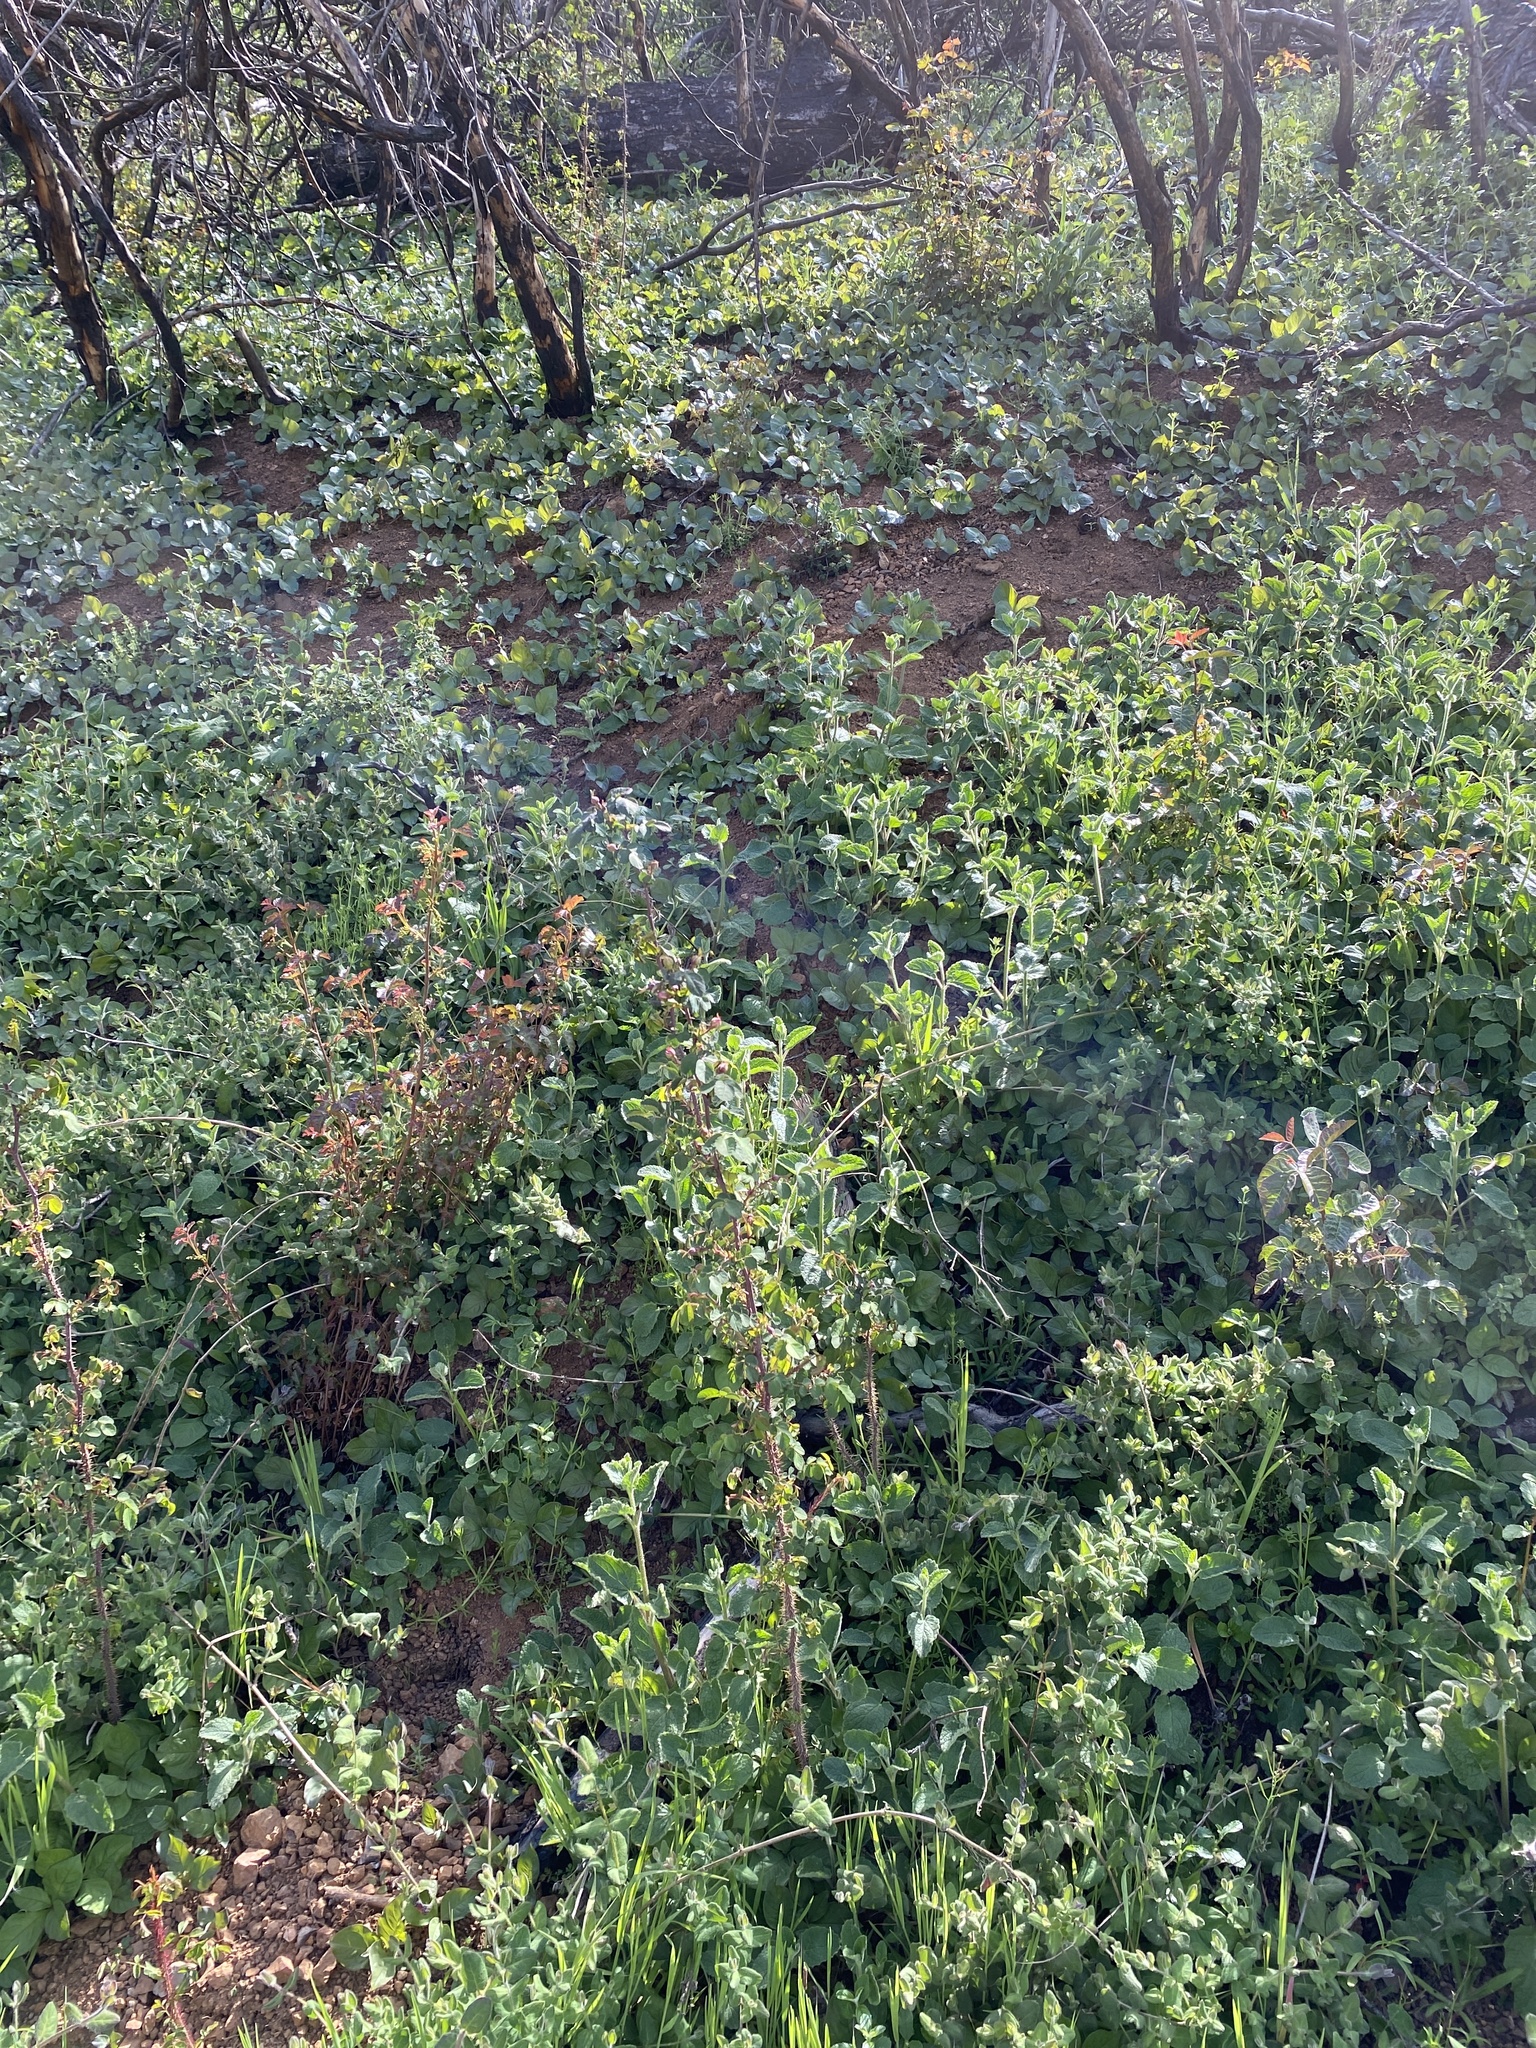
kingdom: Plantae
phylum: Tracheophyta
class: Magnoliopsida
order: Rosales
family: Rosaceae
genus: Rosa
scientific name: Rosa gymnocarpa
